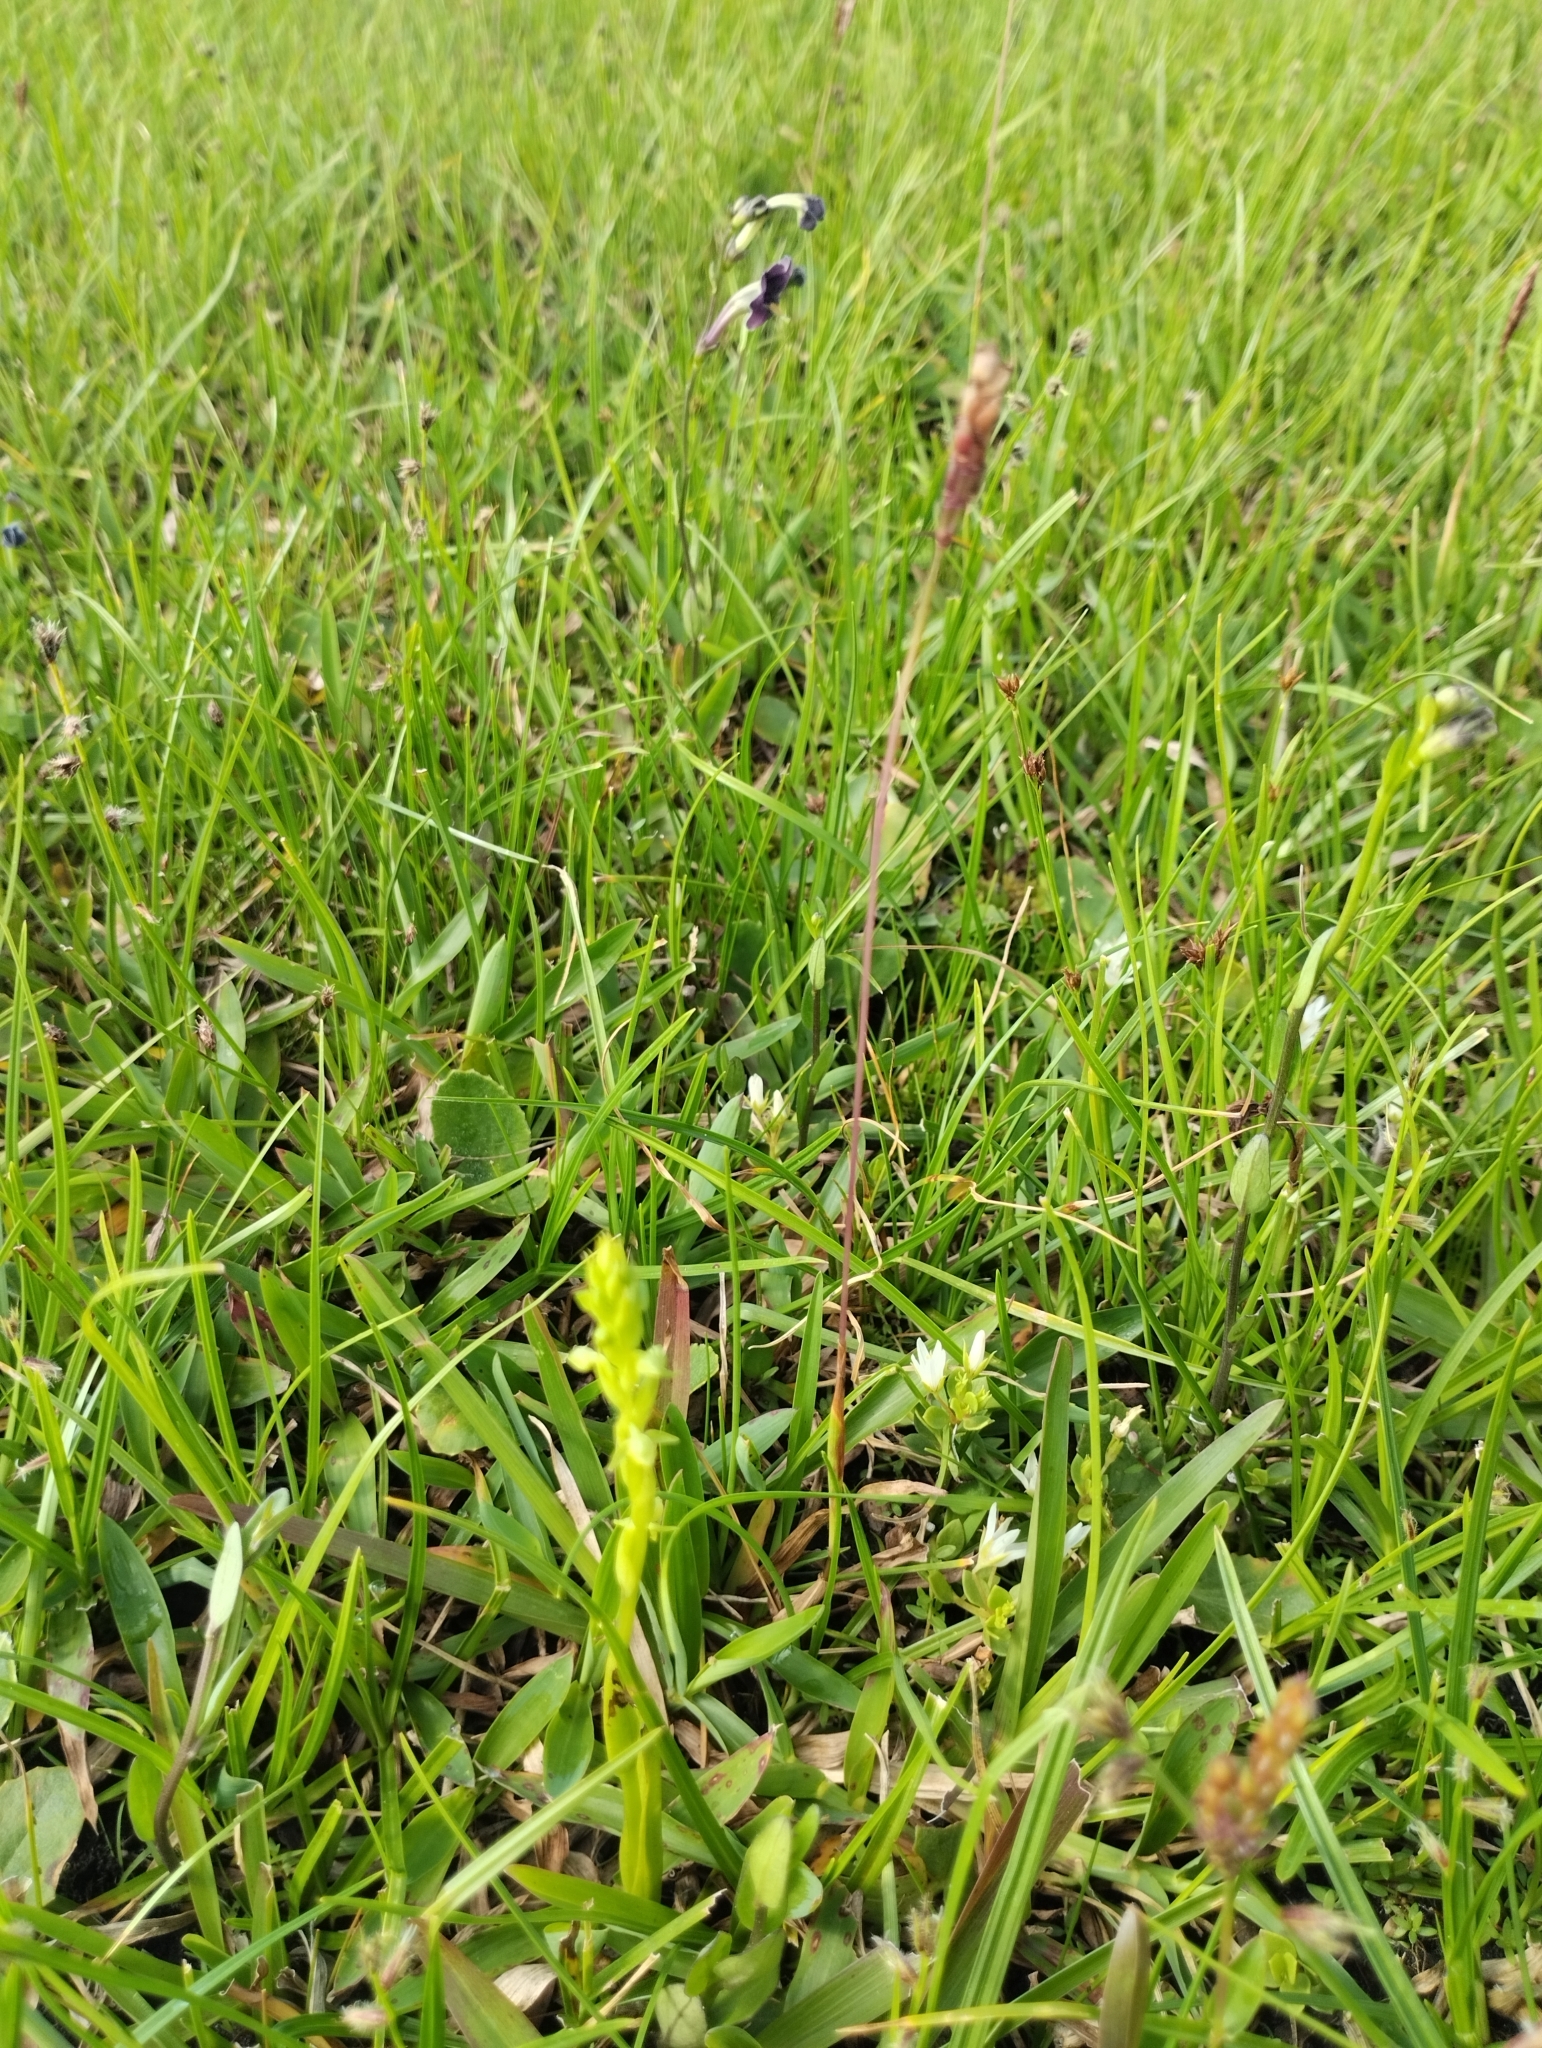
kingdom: Plantae
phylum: Tracheophyta
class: Liliopsida
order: Asparagales
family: Orchidaceae
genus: Habenaria
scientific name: Habenaria parviflora
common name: Small flowered habenaria
